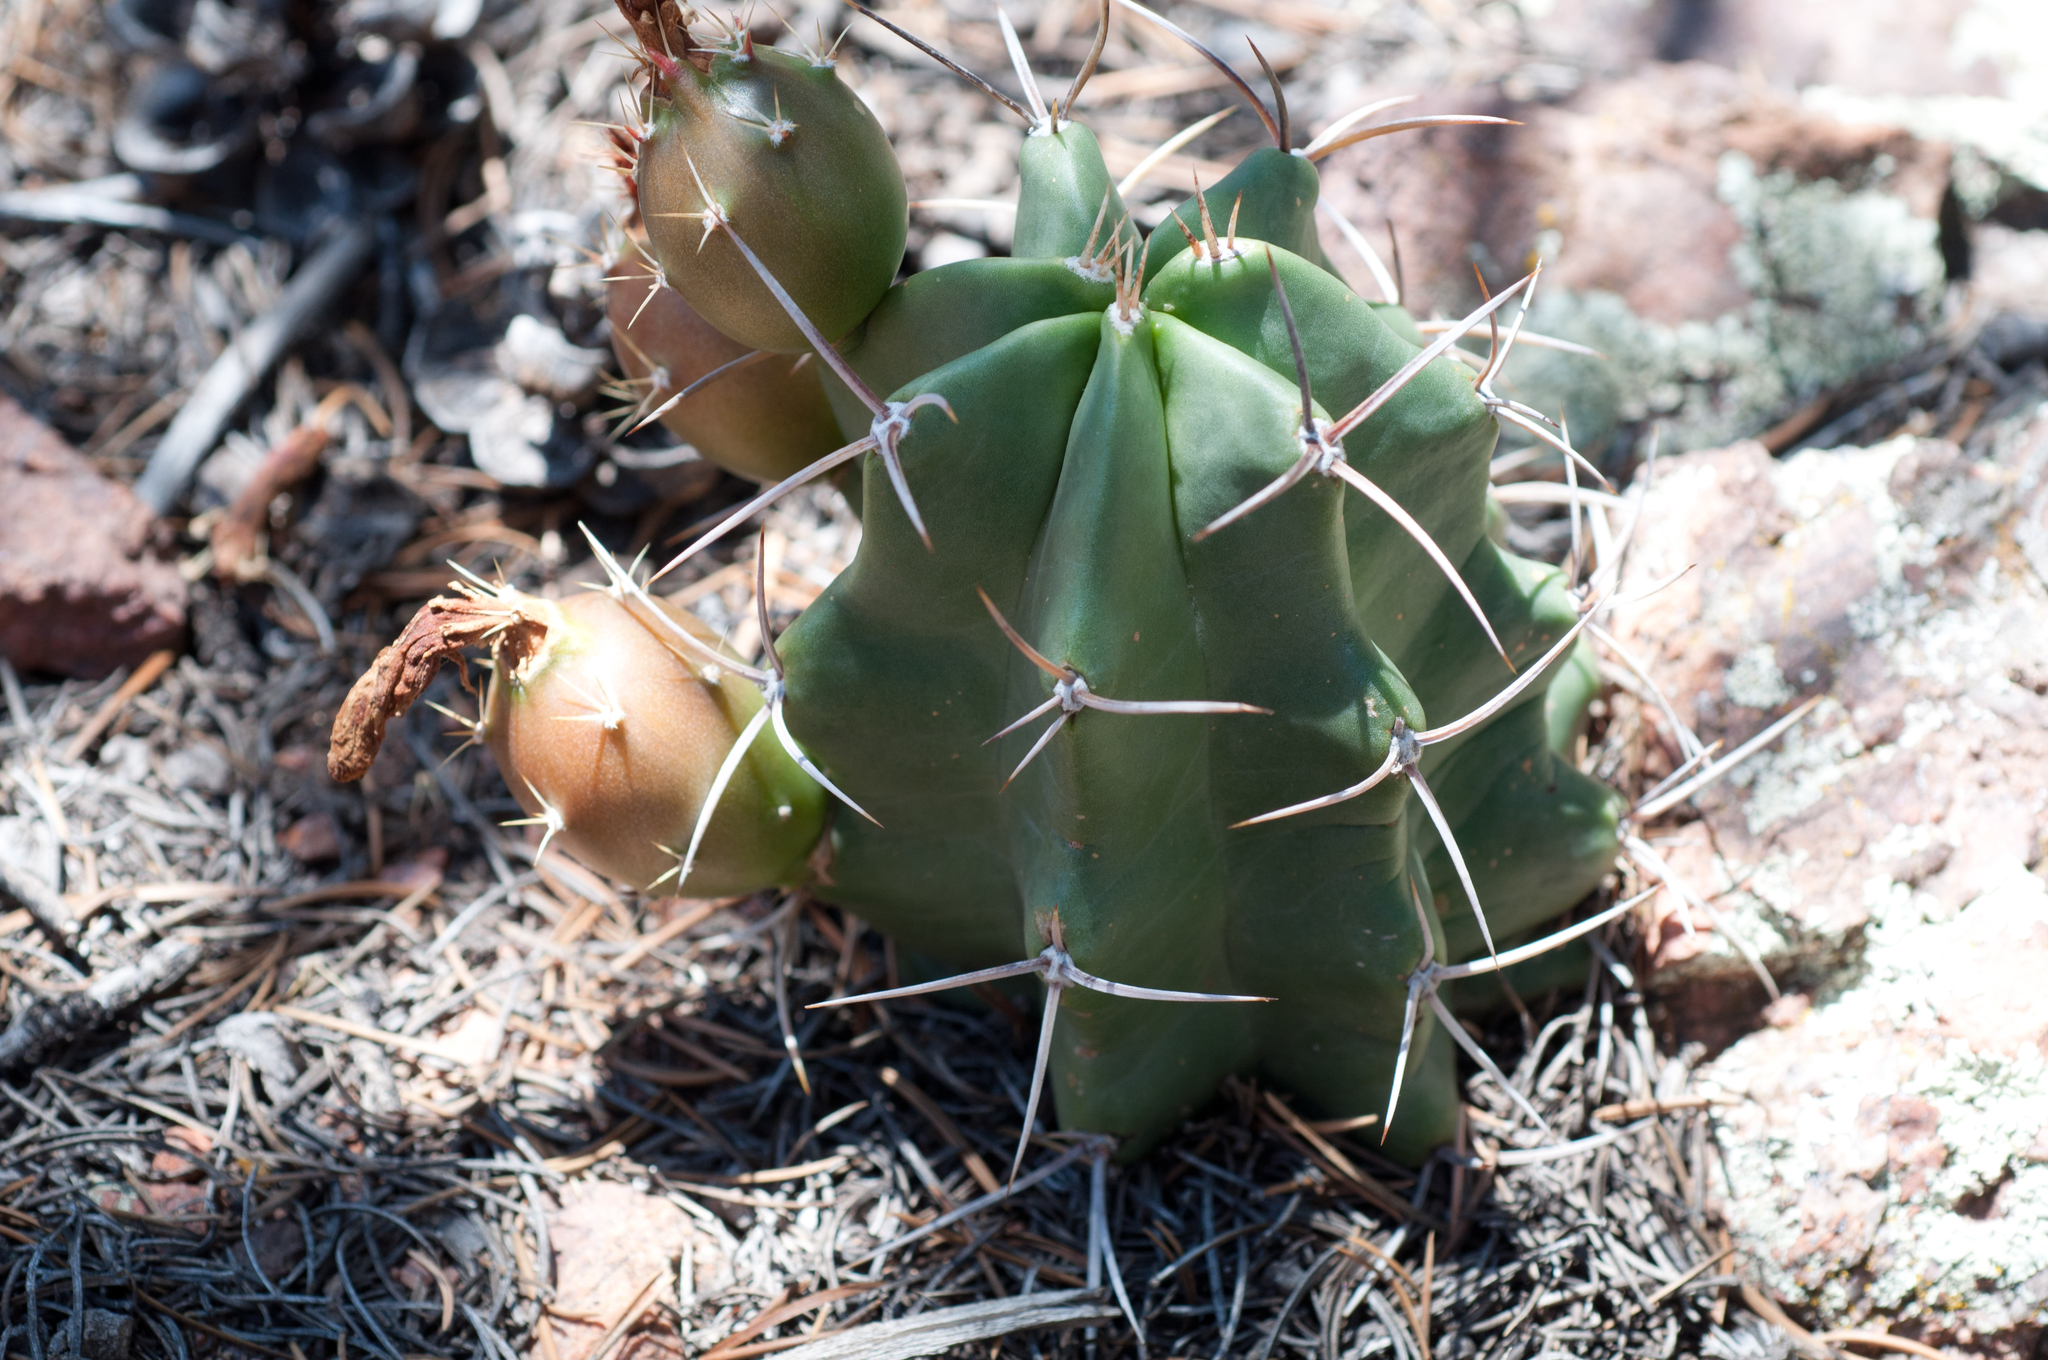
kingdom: Plantae
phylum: Tracheophyta
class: Magnoliopsida
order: Caryophyllales
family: Cactaceae
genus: Echinocereus
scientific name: Echinocereus triglochidiatus
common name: Claretcup hedgehog
